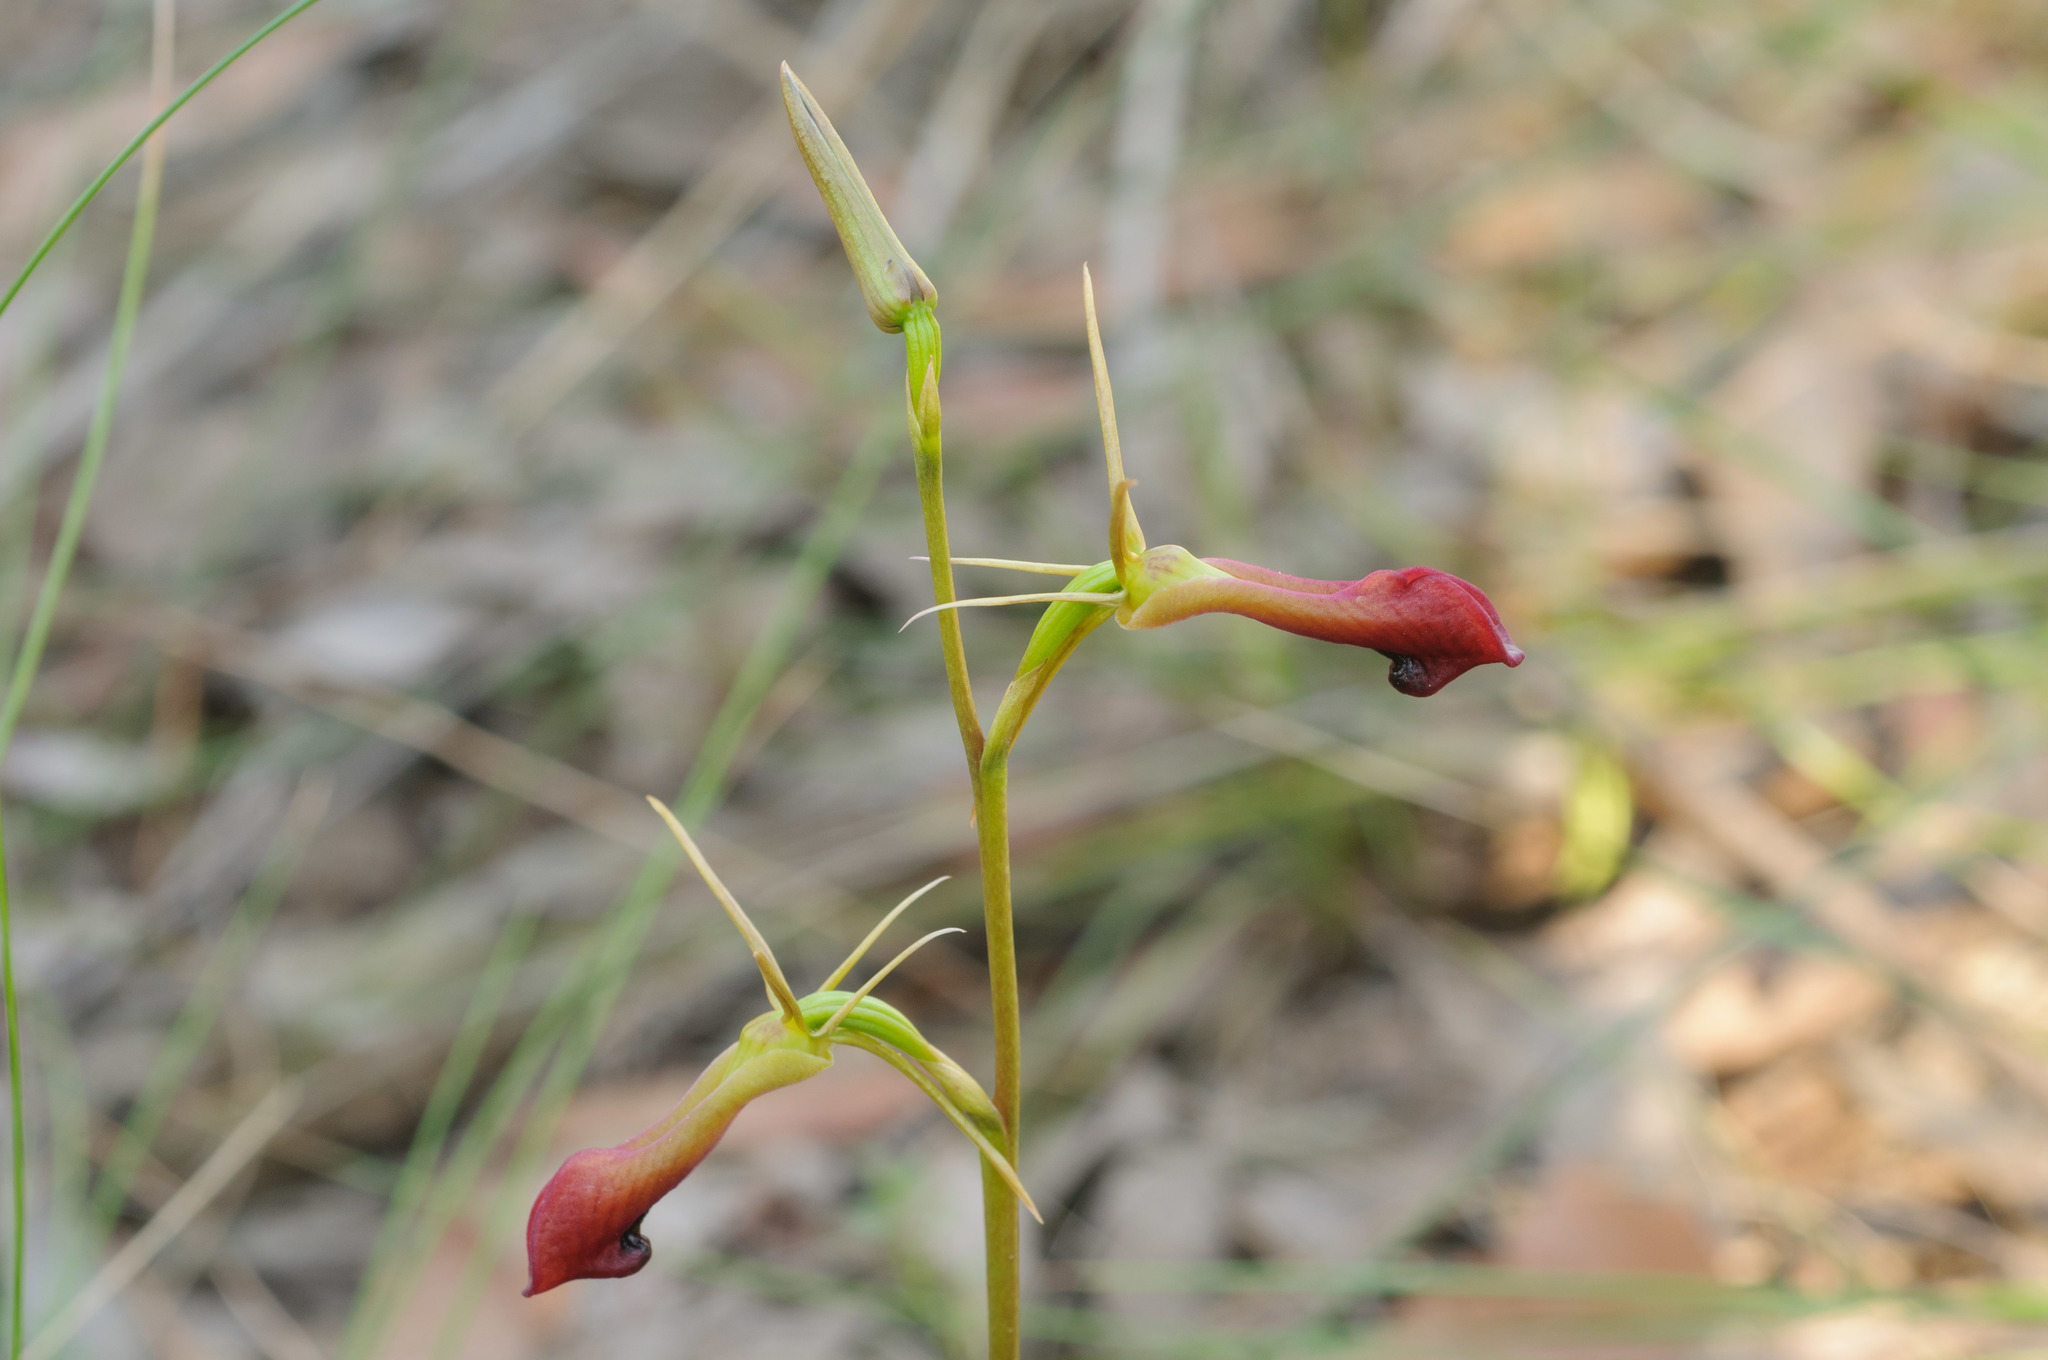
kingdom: Plantae
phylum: Tracheophyta
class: Liliopsida
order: Asparagales
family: Orchidaceae
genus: Cryptostylis
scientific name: Cryptostylis subulata
